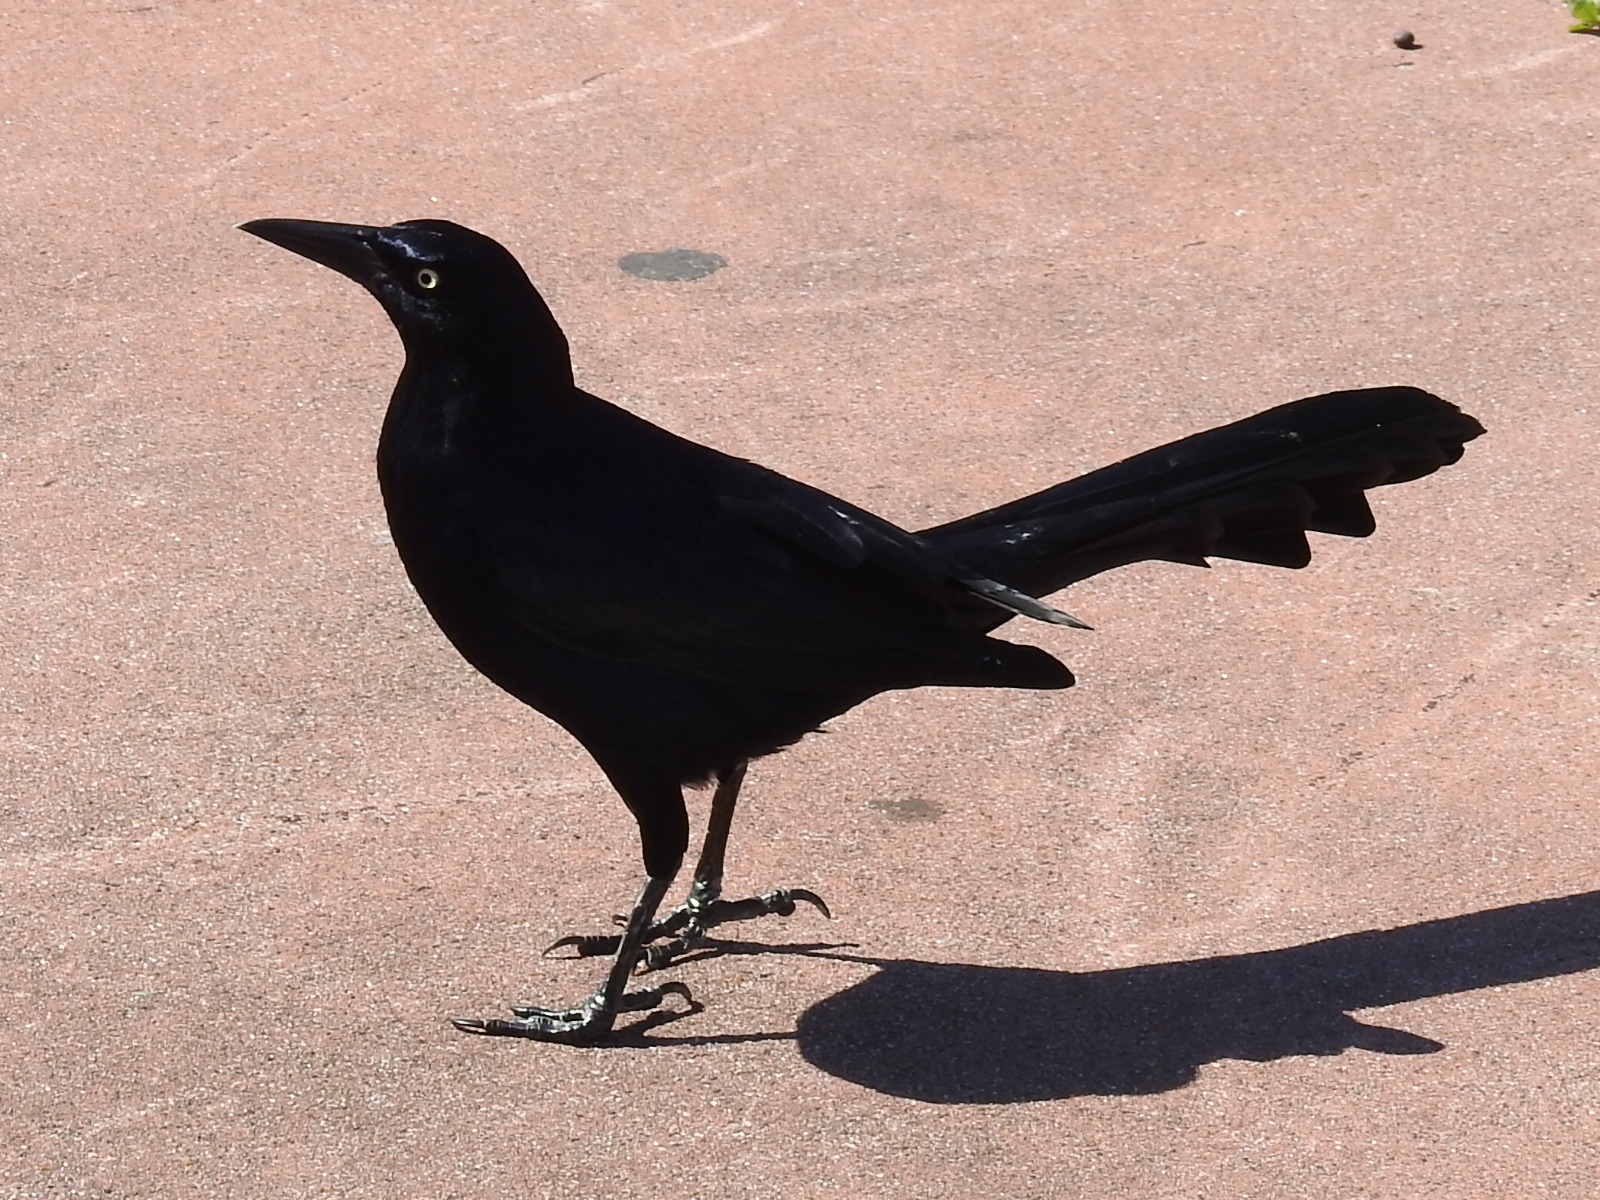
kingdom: Animalia
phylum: Chordata
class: Aves
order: Passeriformes
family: Icteridae
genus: Quiscalus
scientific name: Quiscalus mexicanus
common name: Great-tailed grackle
